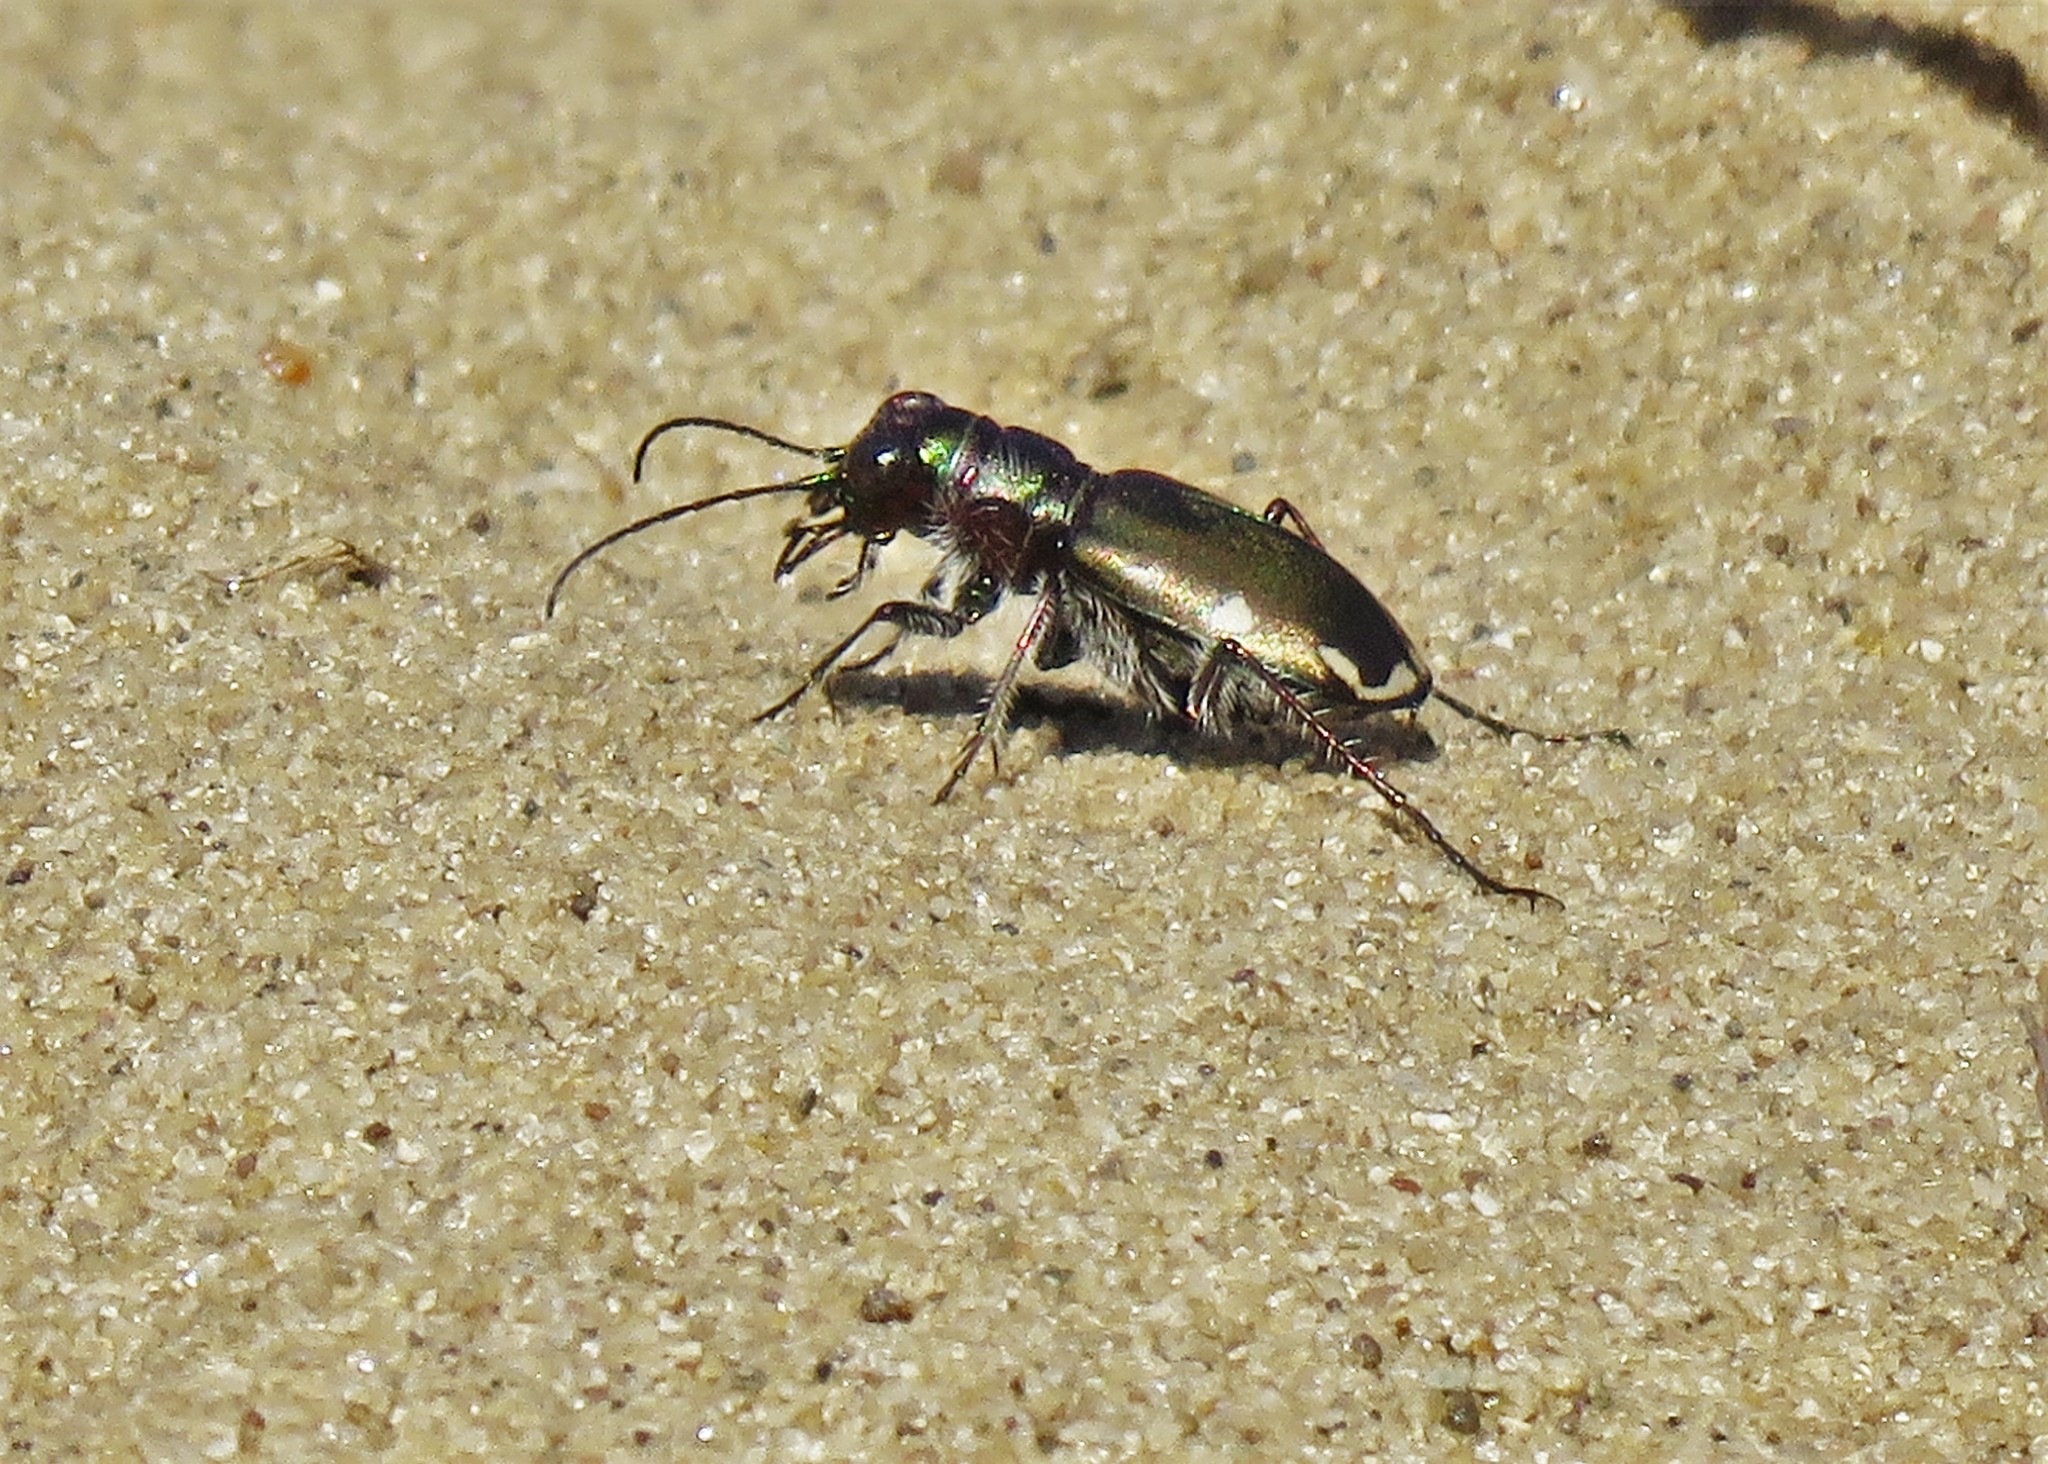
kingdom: Animalia
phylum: Arthropoda
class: Insecta
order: Coleoptera
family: Carabidae
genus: Cicindela
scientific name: Cicindela scutellaris
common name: Festive tiger beetle
